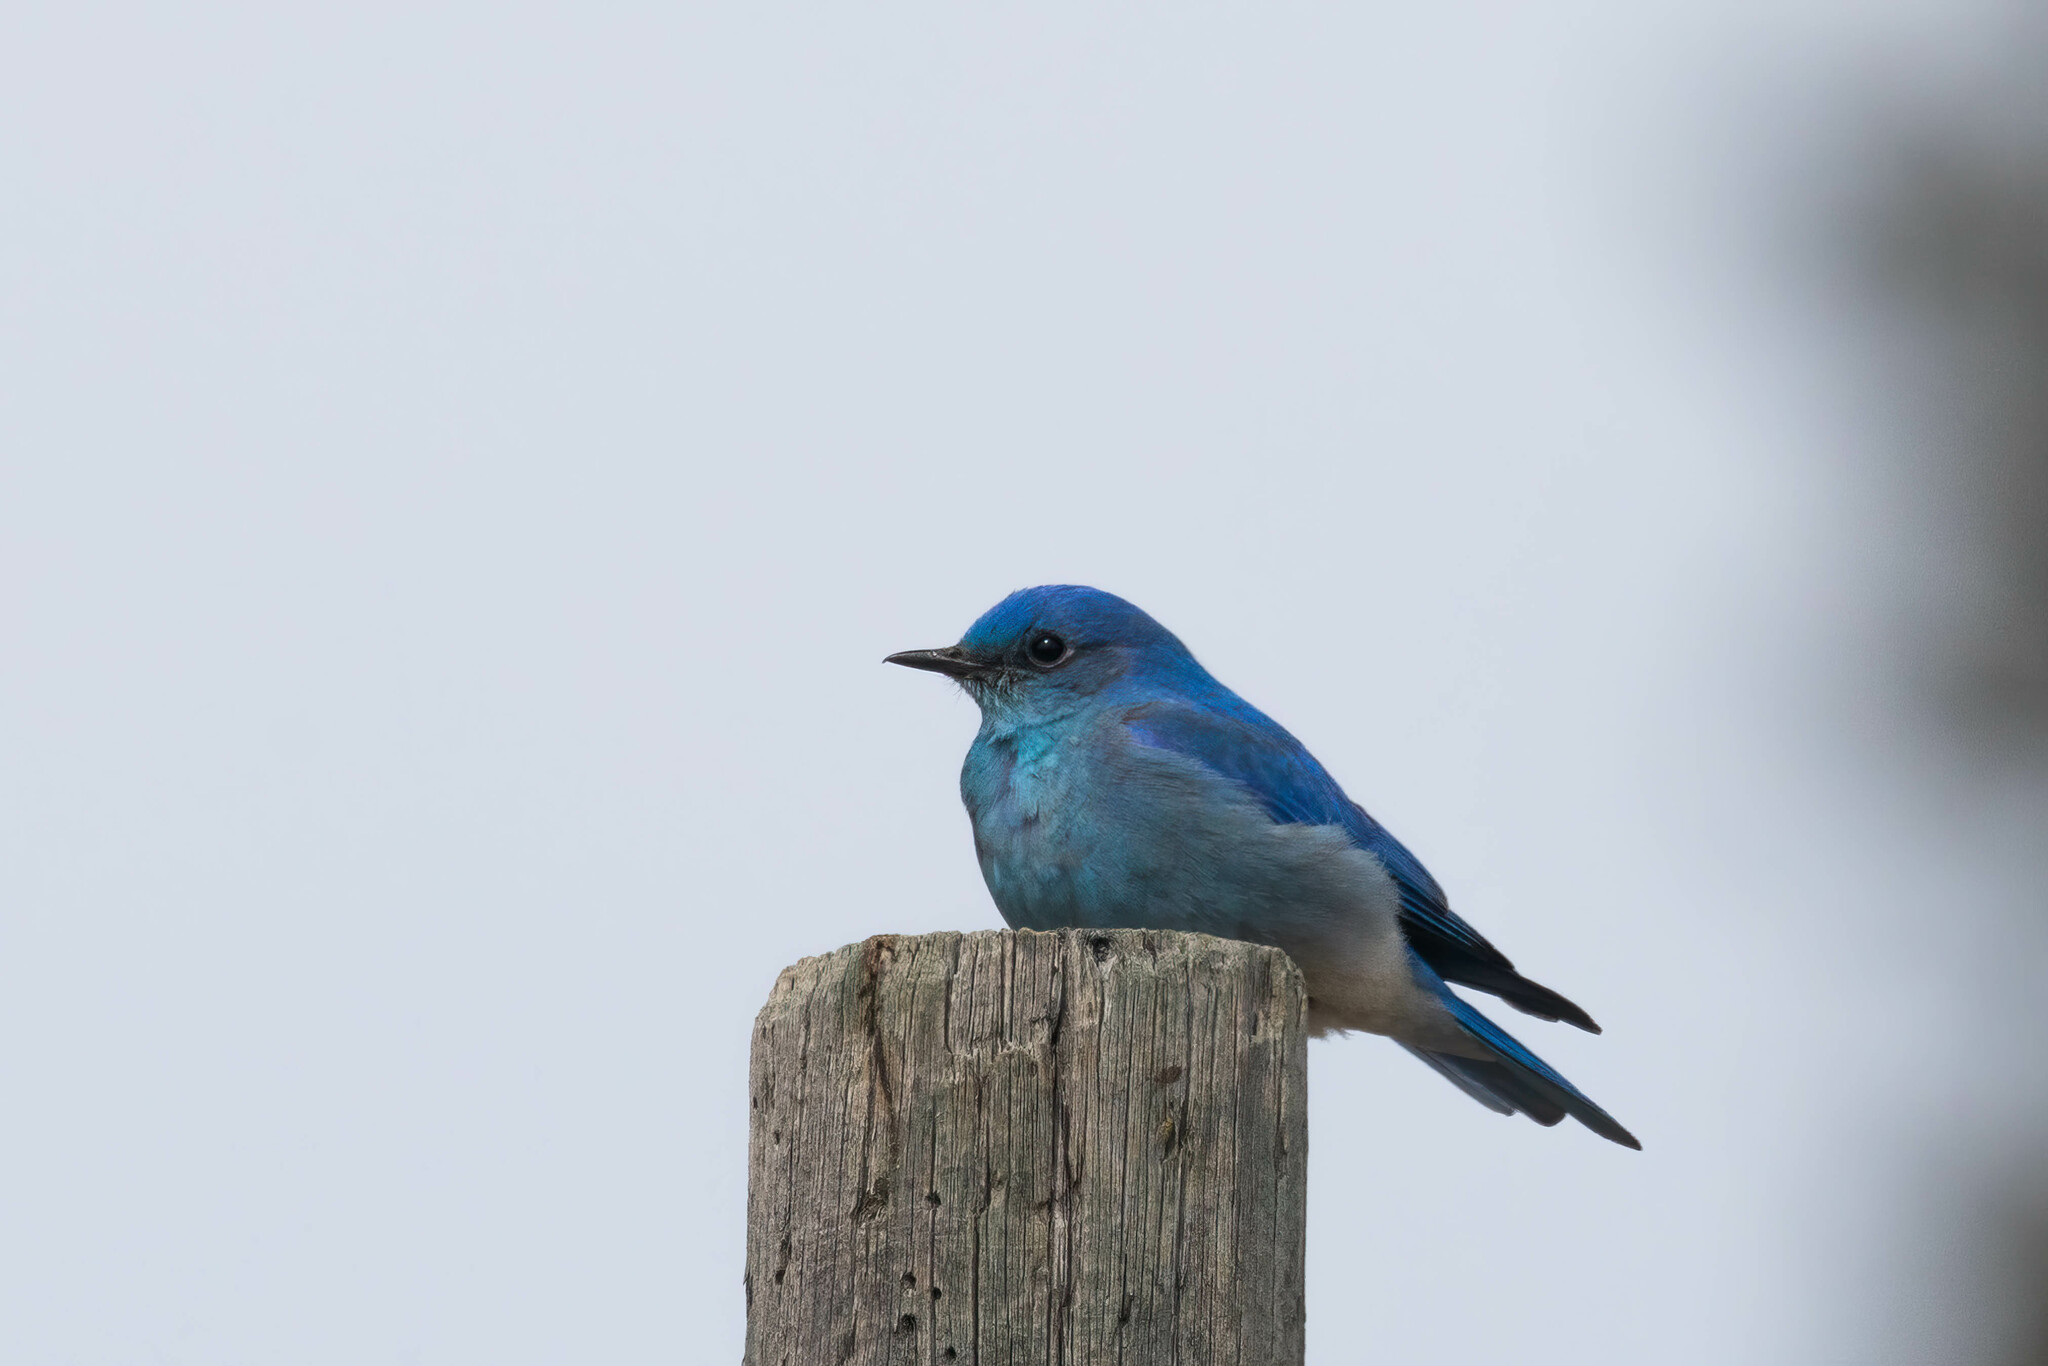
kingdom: Animalia
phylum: Chordata
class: Aves
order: Passeriformes
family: Turdidae
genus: Sialia
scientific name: Sialia currucoides
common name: Mountain bluebird
